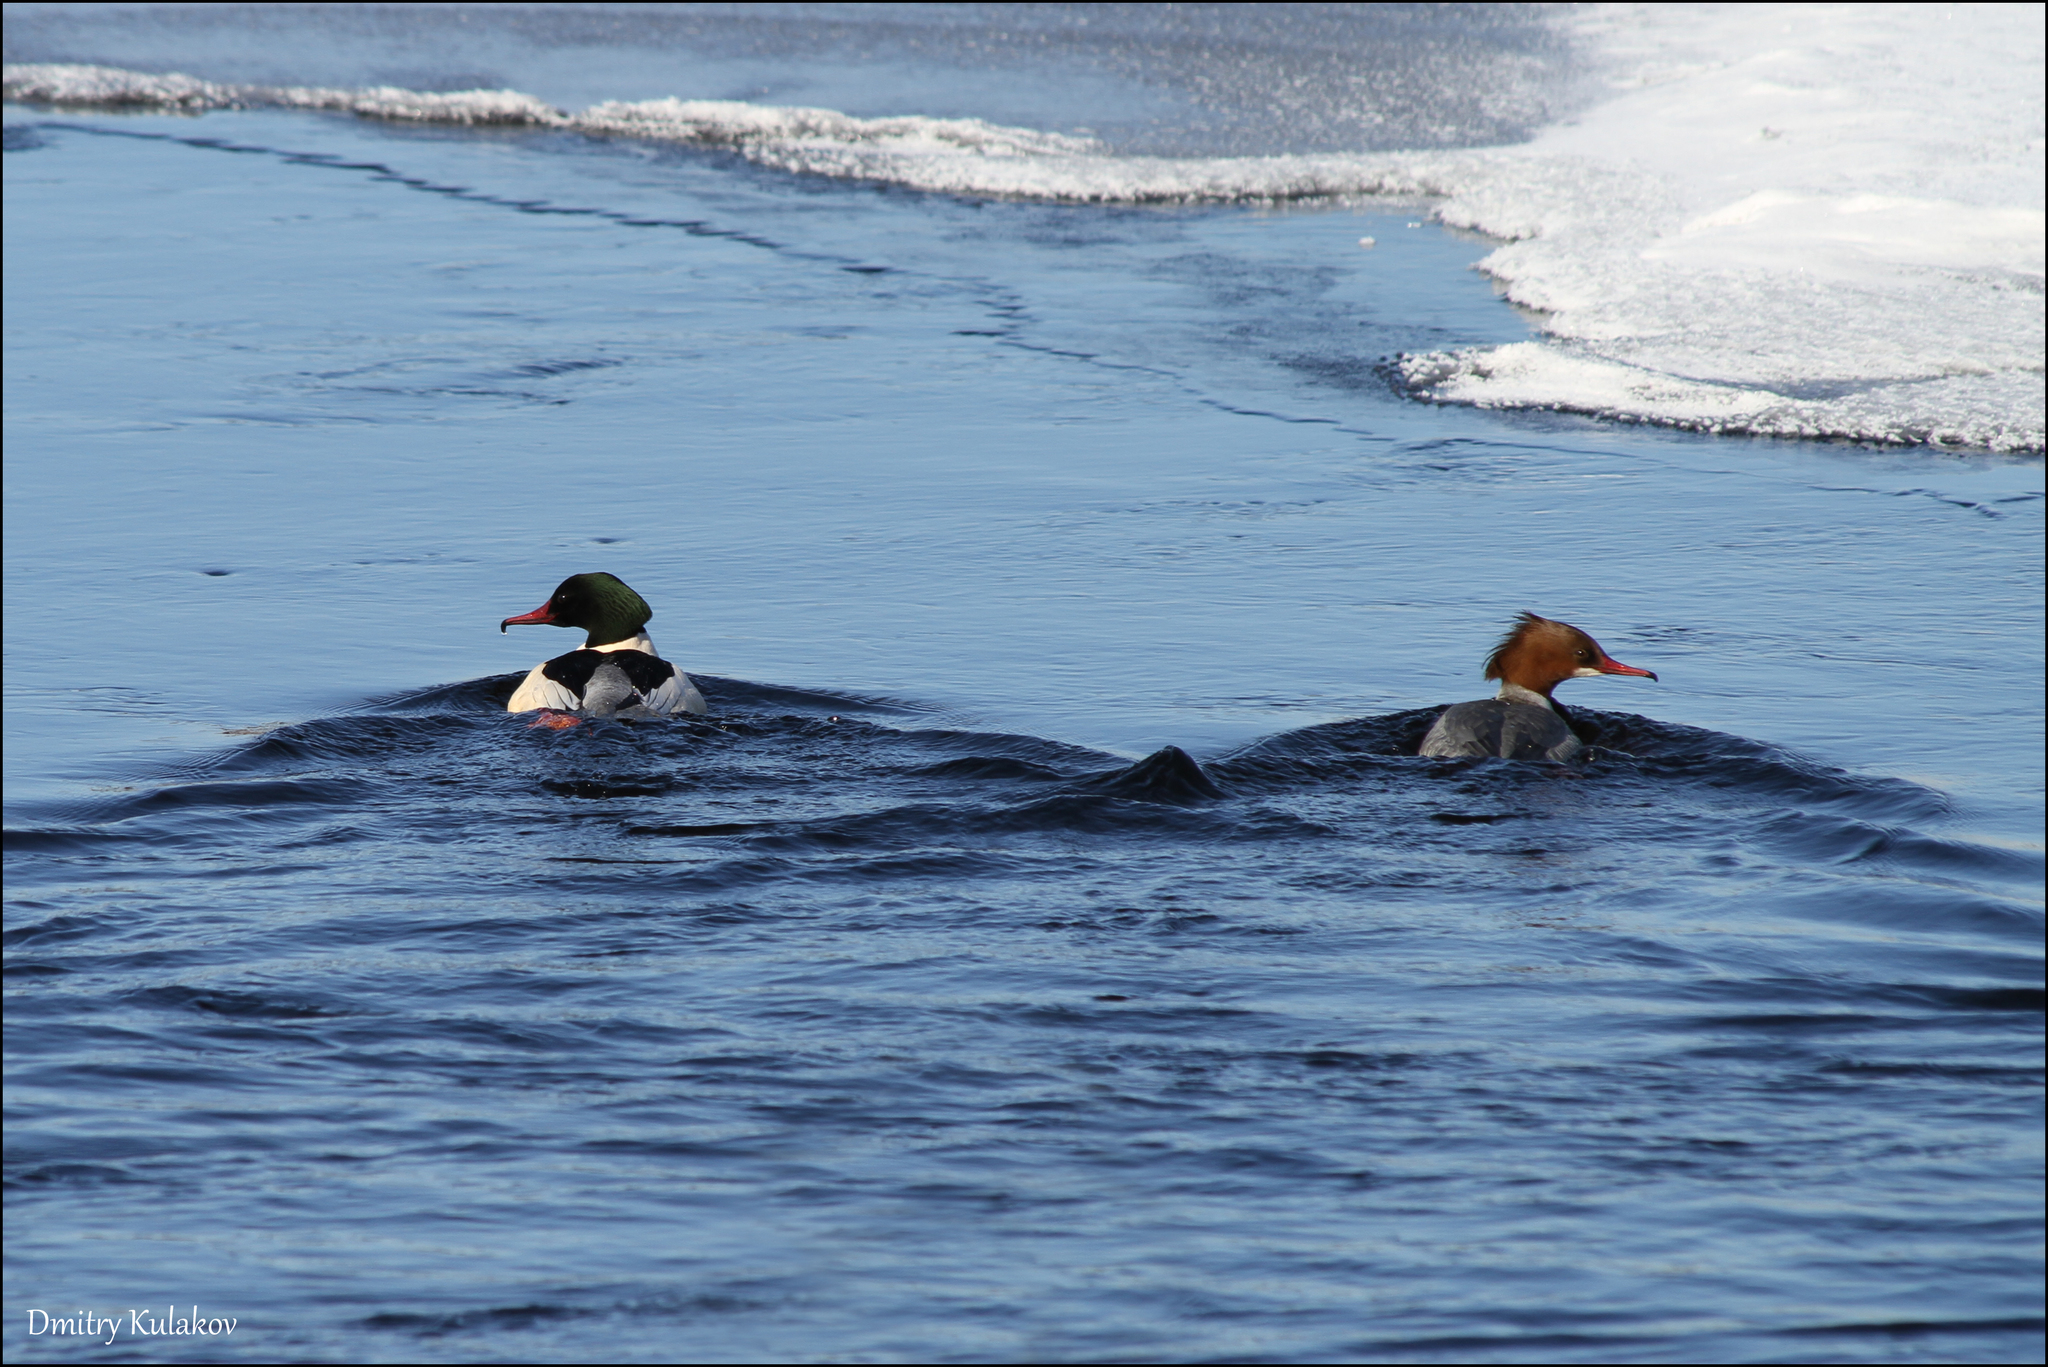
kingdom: Animalia
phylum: Chordata
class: Aves
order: Anseriformes
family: Anatidae
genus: Mergus
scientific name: Mergus merganser
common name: Common merganser
